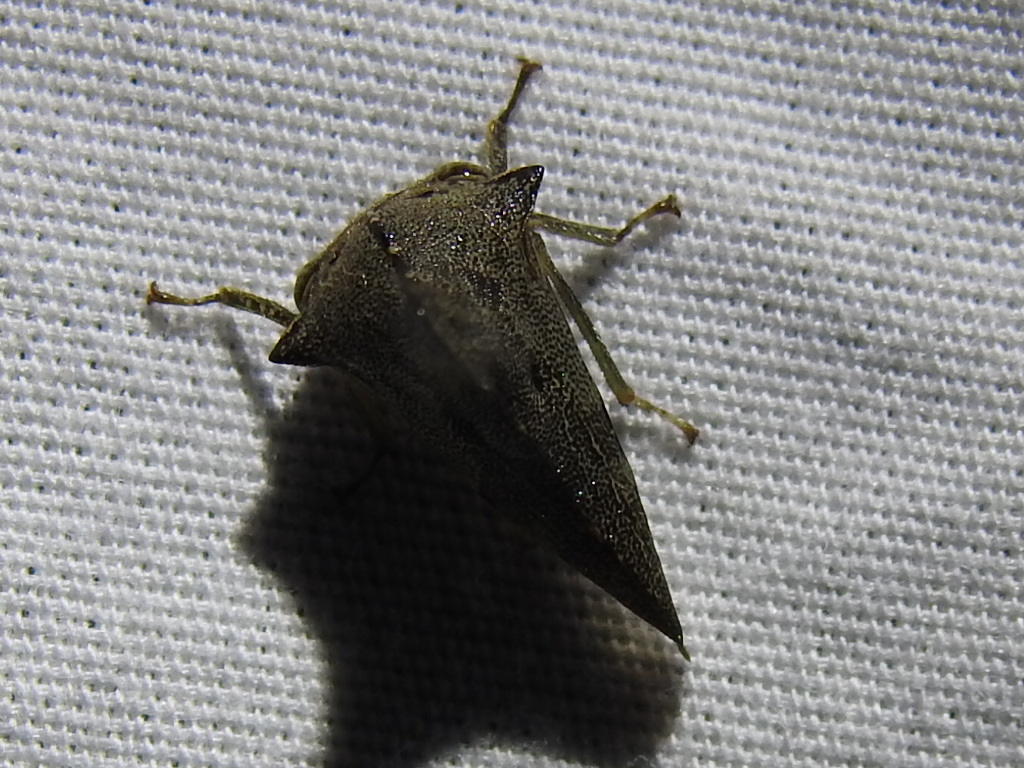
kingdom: Animalia
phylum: Arthropoda
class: Insecta
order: Hemiptera
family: Membracidae
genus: Glossonotus
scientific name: Glossonotus acuminata
